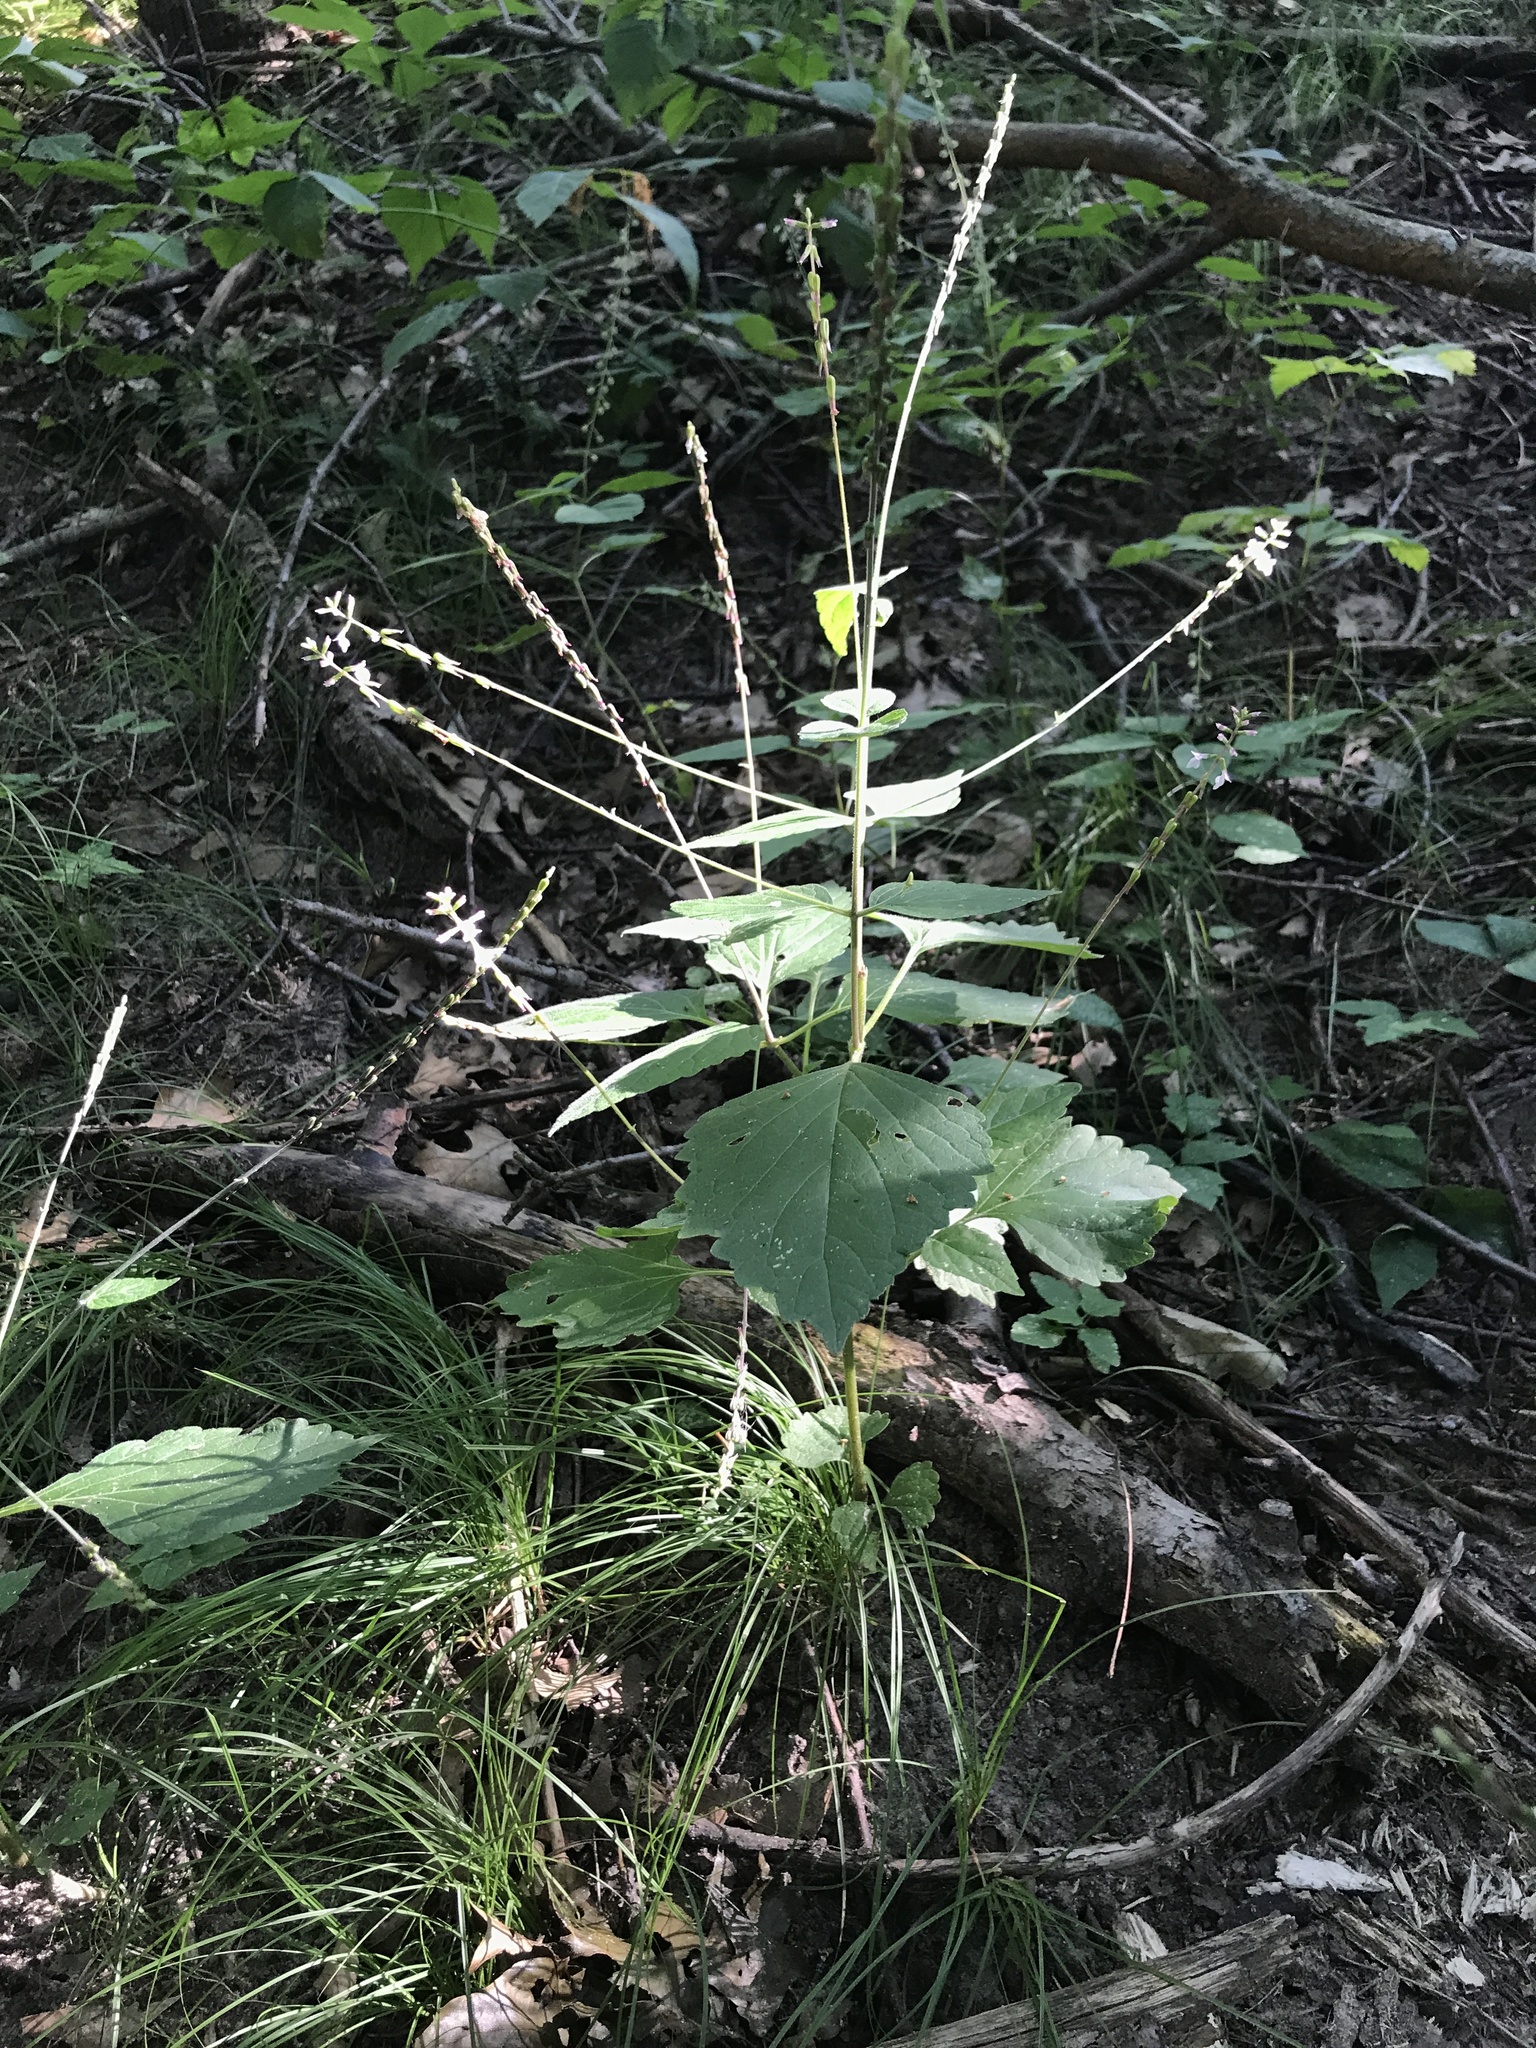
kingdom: Plantae
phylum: Tracheophyta
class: Magnoliopsida
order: Lamiales
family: Phrymaceae
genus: Phryma
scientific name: Phryma leptostachya
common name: American lopseed
